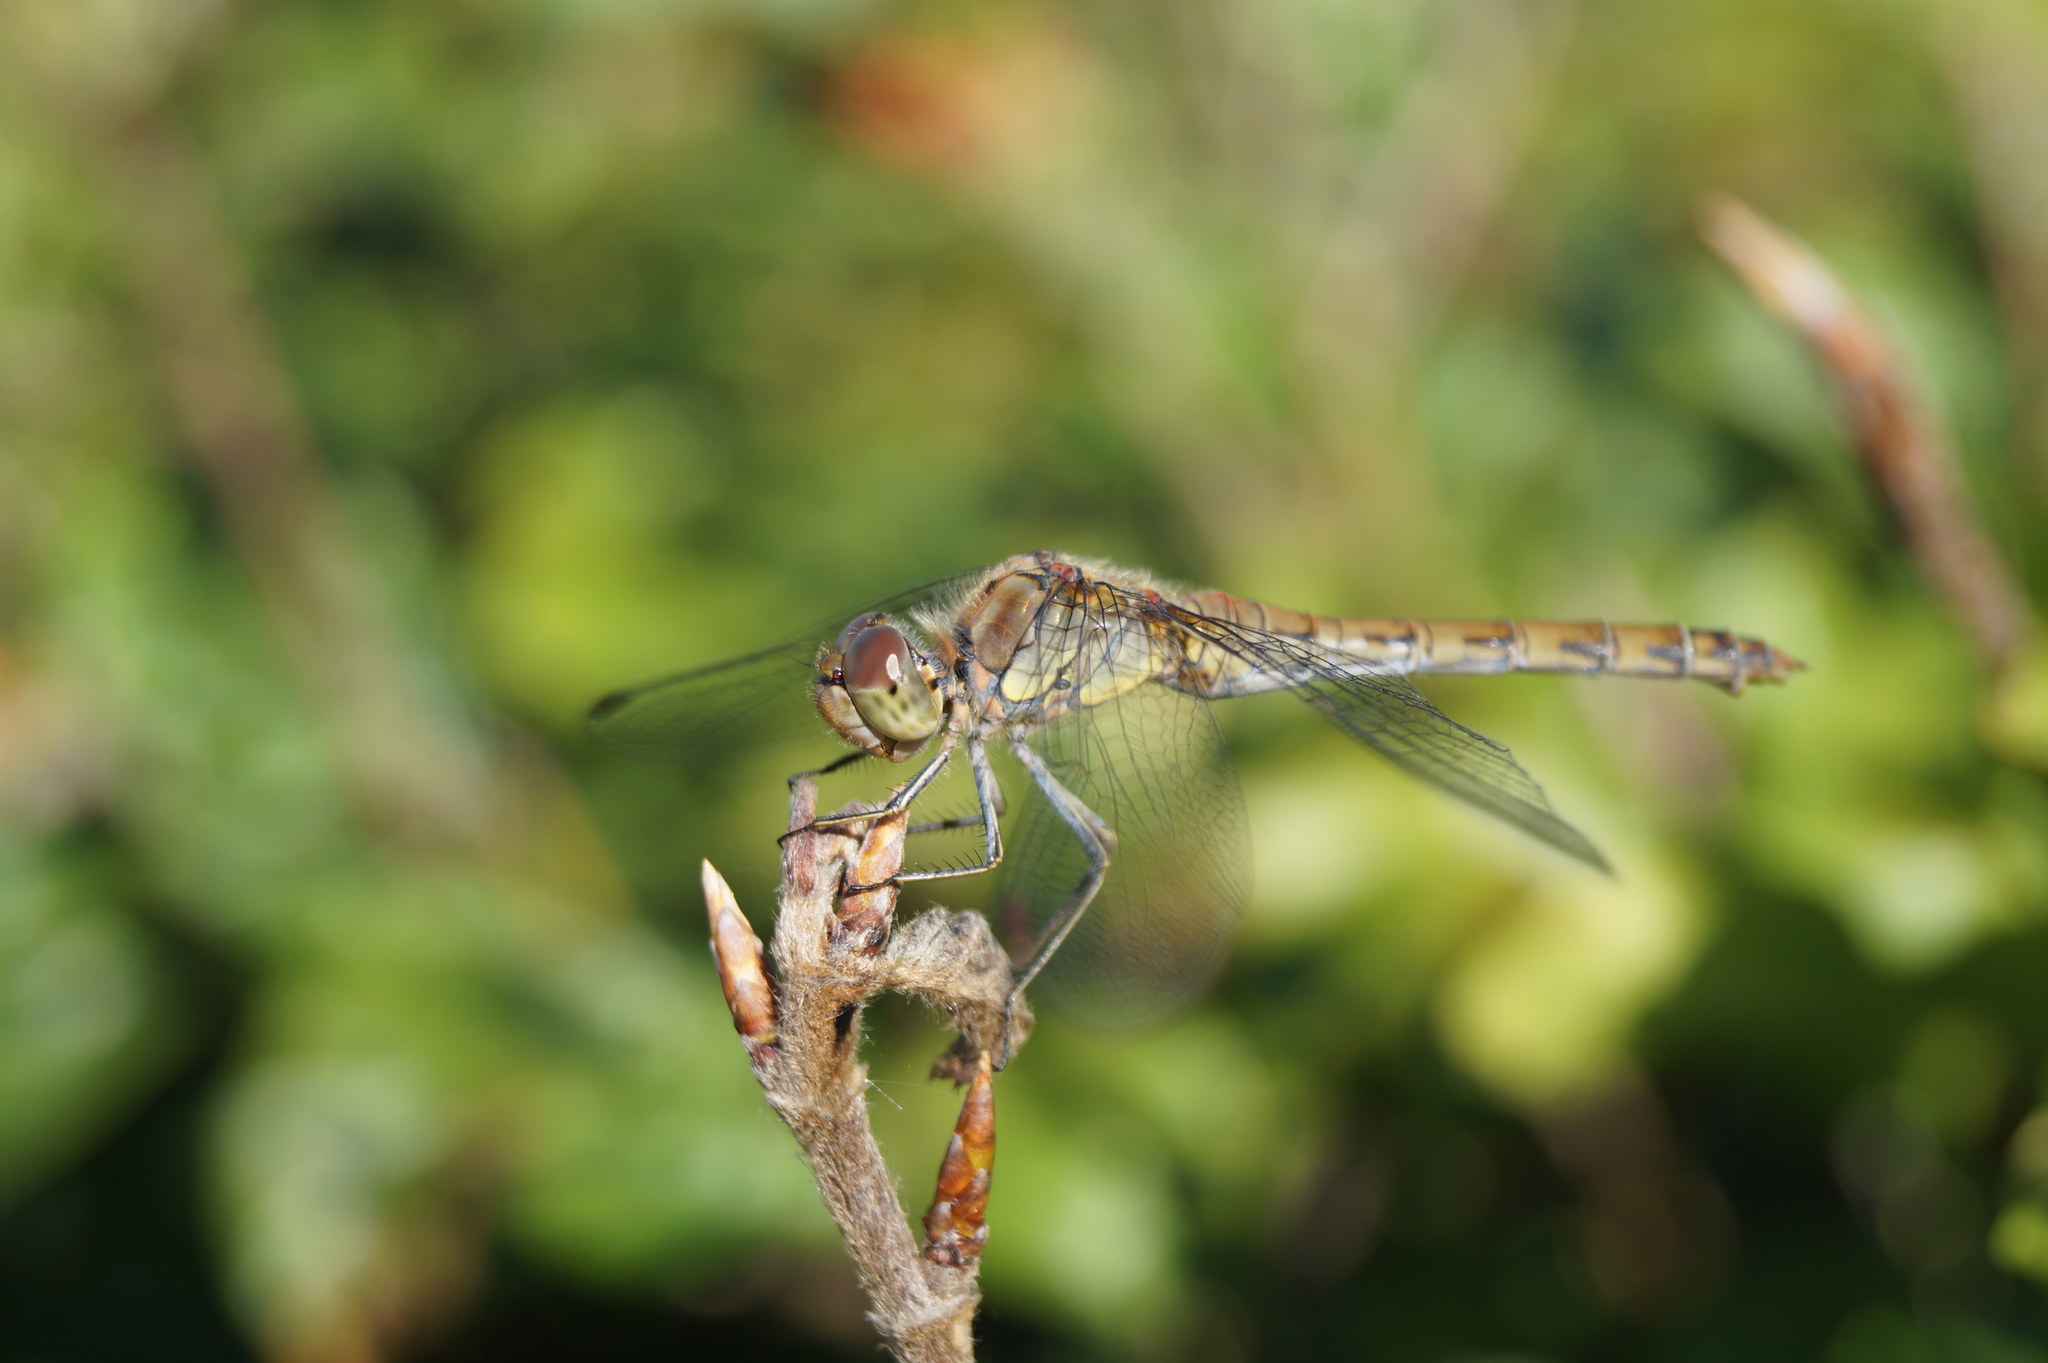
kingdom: Animalia
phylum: Arthropoda
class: Insecta
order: Odonata
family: Libellulidae
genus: Sympetrum
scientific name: Sympetrum striolatum
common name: Common darter
